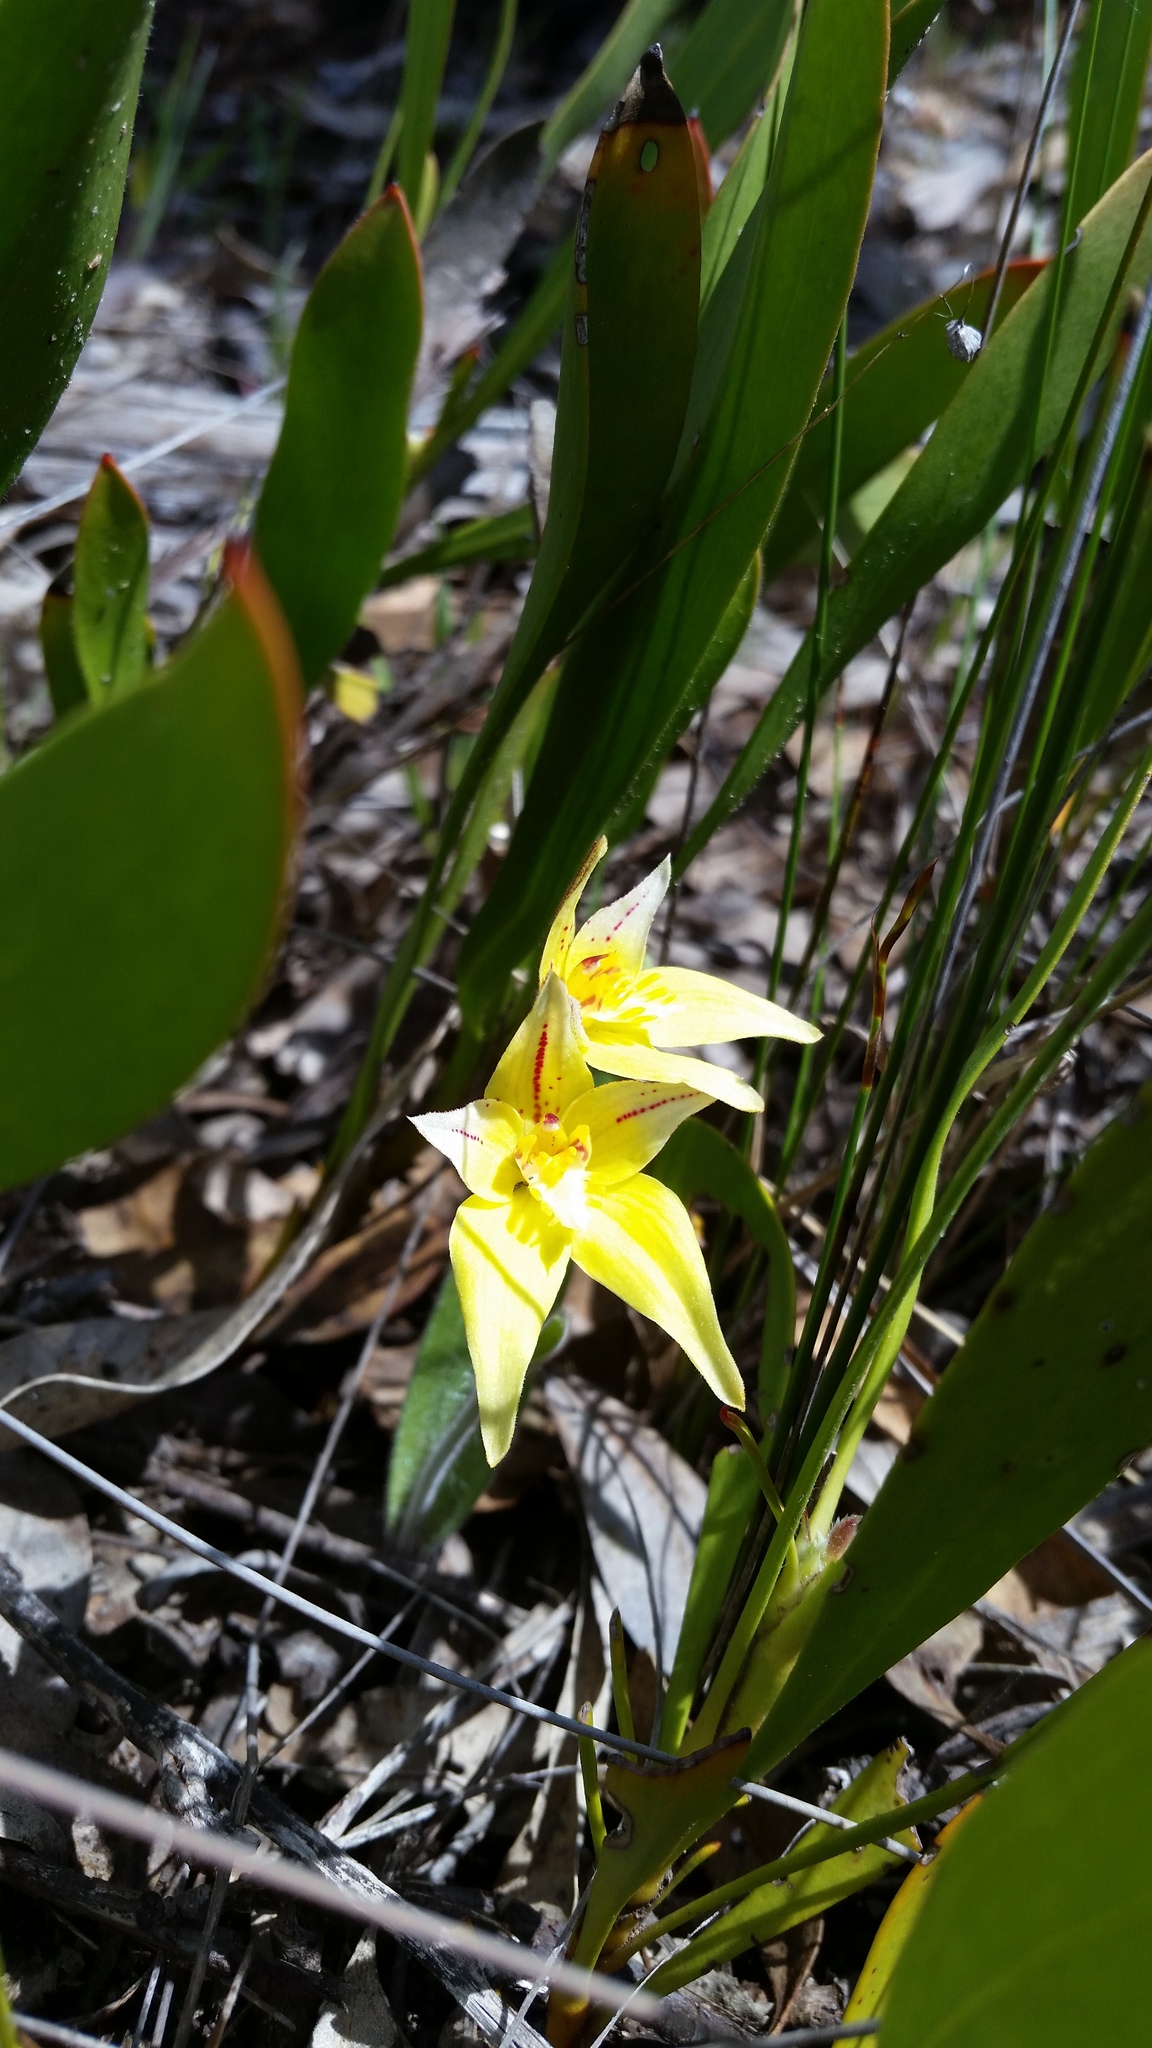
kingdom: Plantae
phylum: Tracheophyta
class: Liliopsida
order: Asparagales
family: Orchidaceae
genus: Caladenia
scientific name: Caladenia flava
